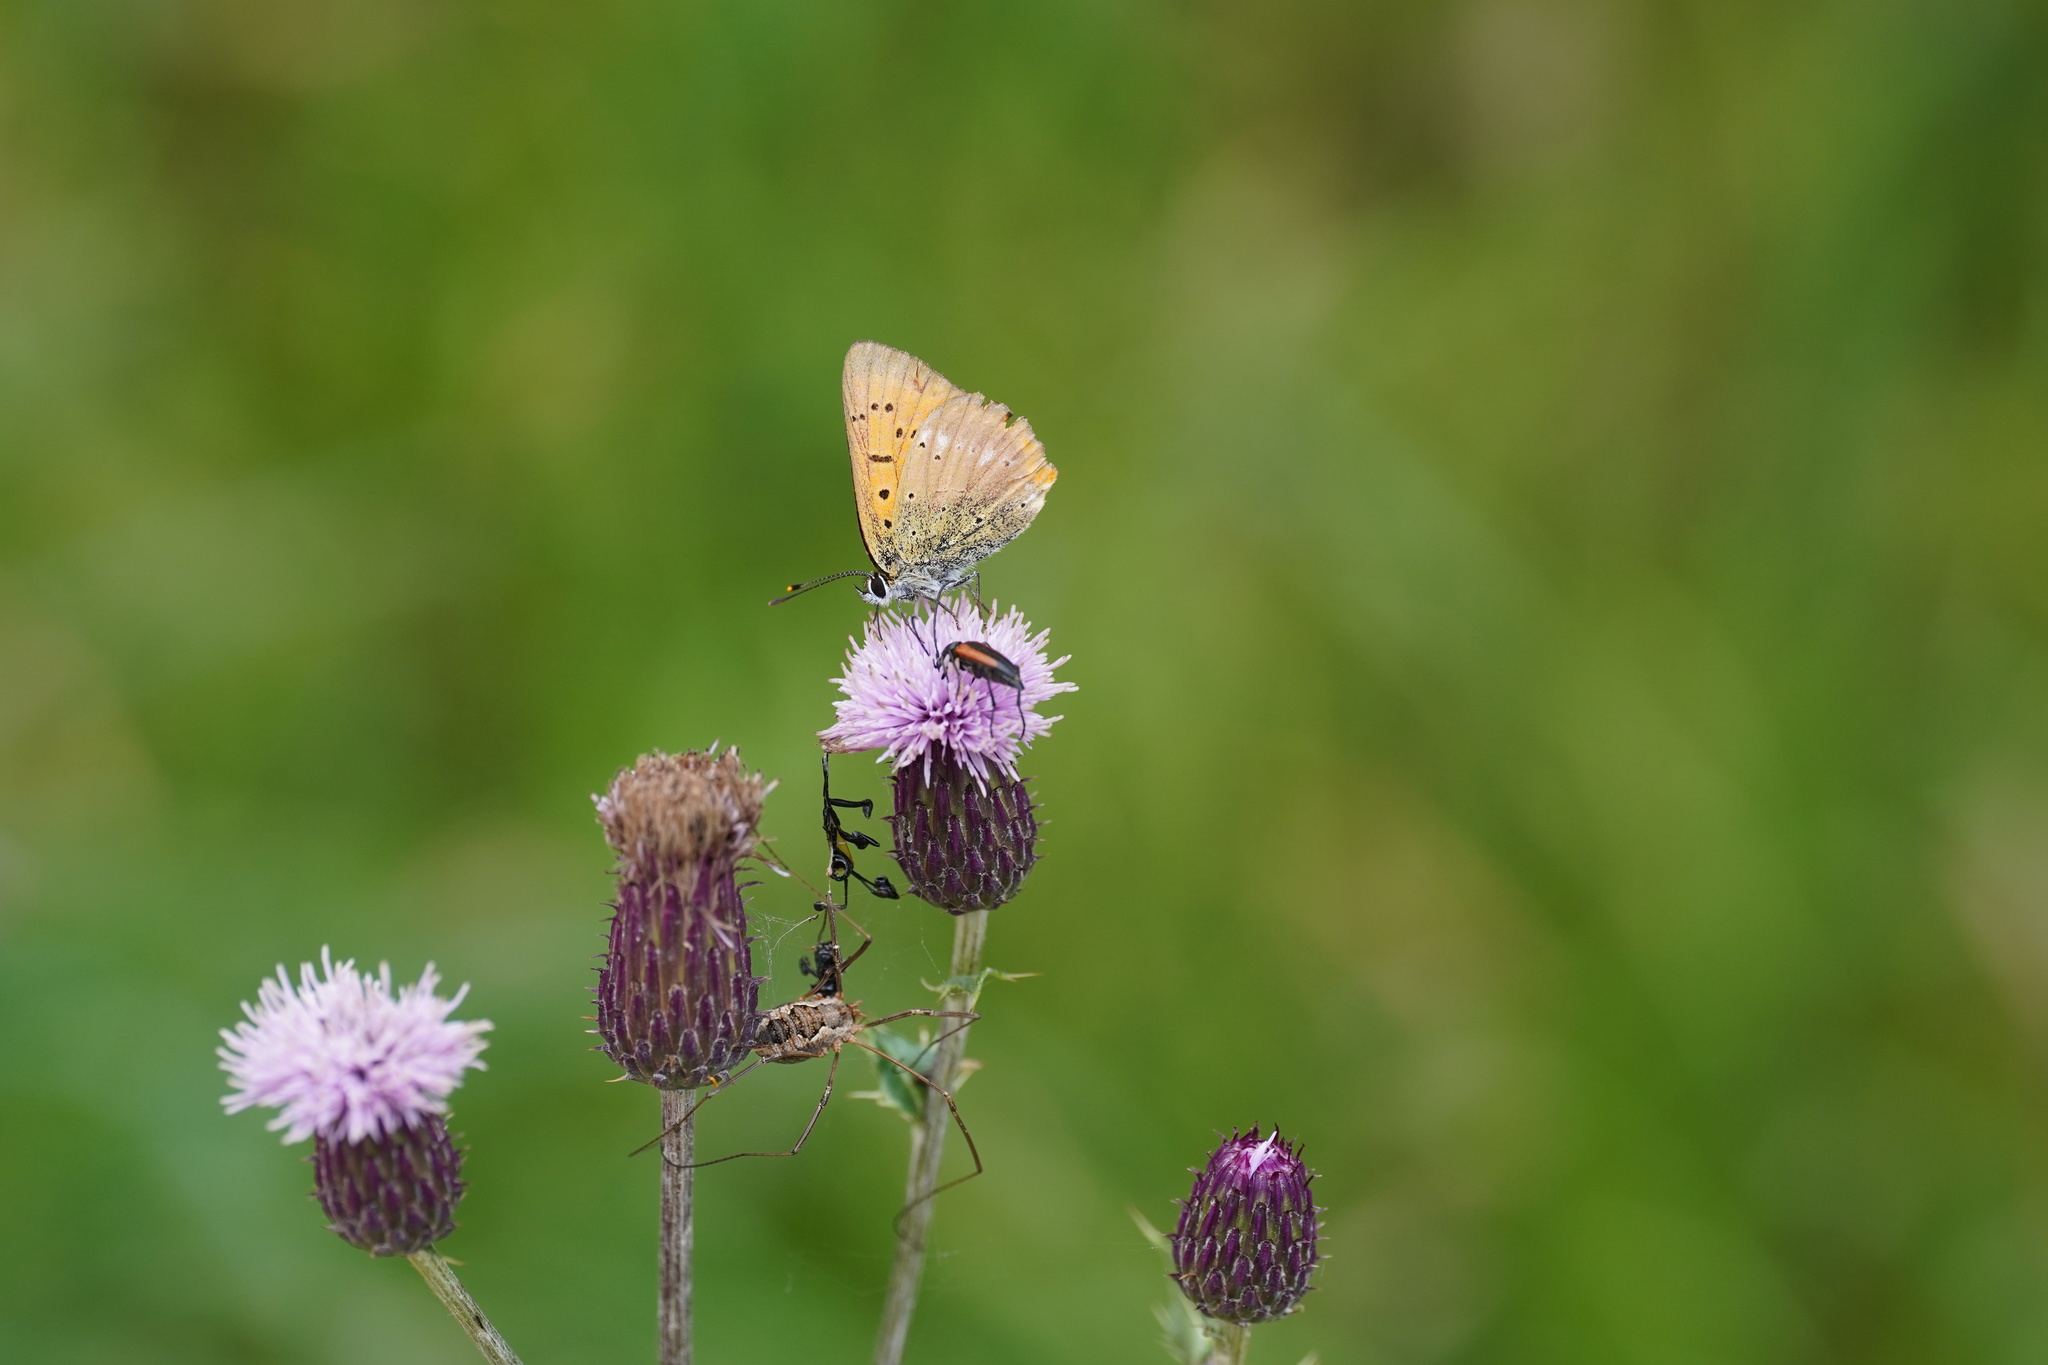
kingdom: Animalia
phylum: Arthropoda
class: Insecta
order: Lepidoptera
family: Lycaenidae
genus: Lycaena
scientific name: Lycaena virgaureae
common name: Scarce copper
